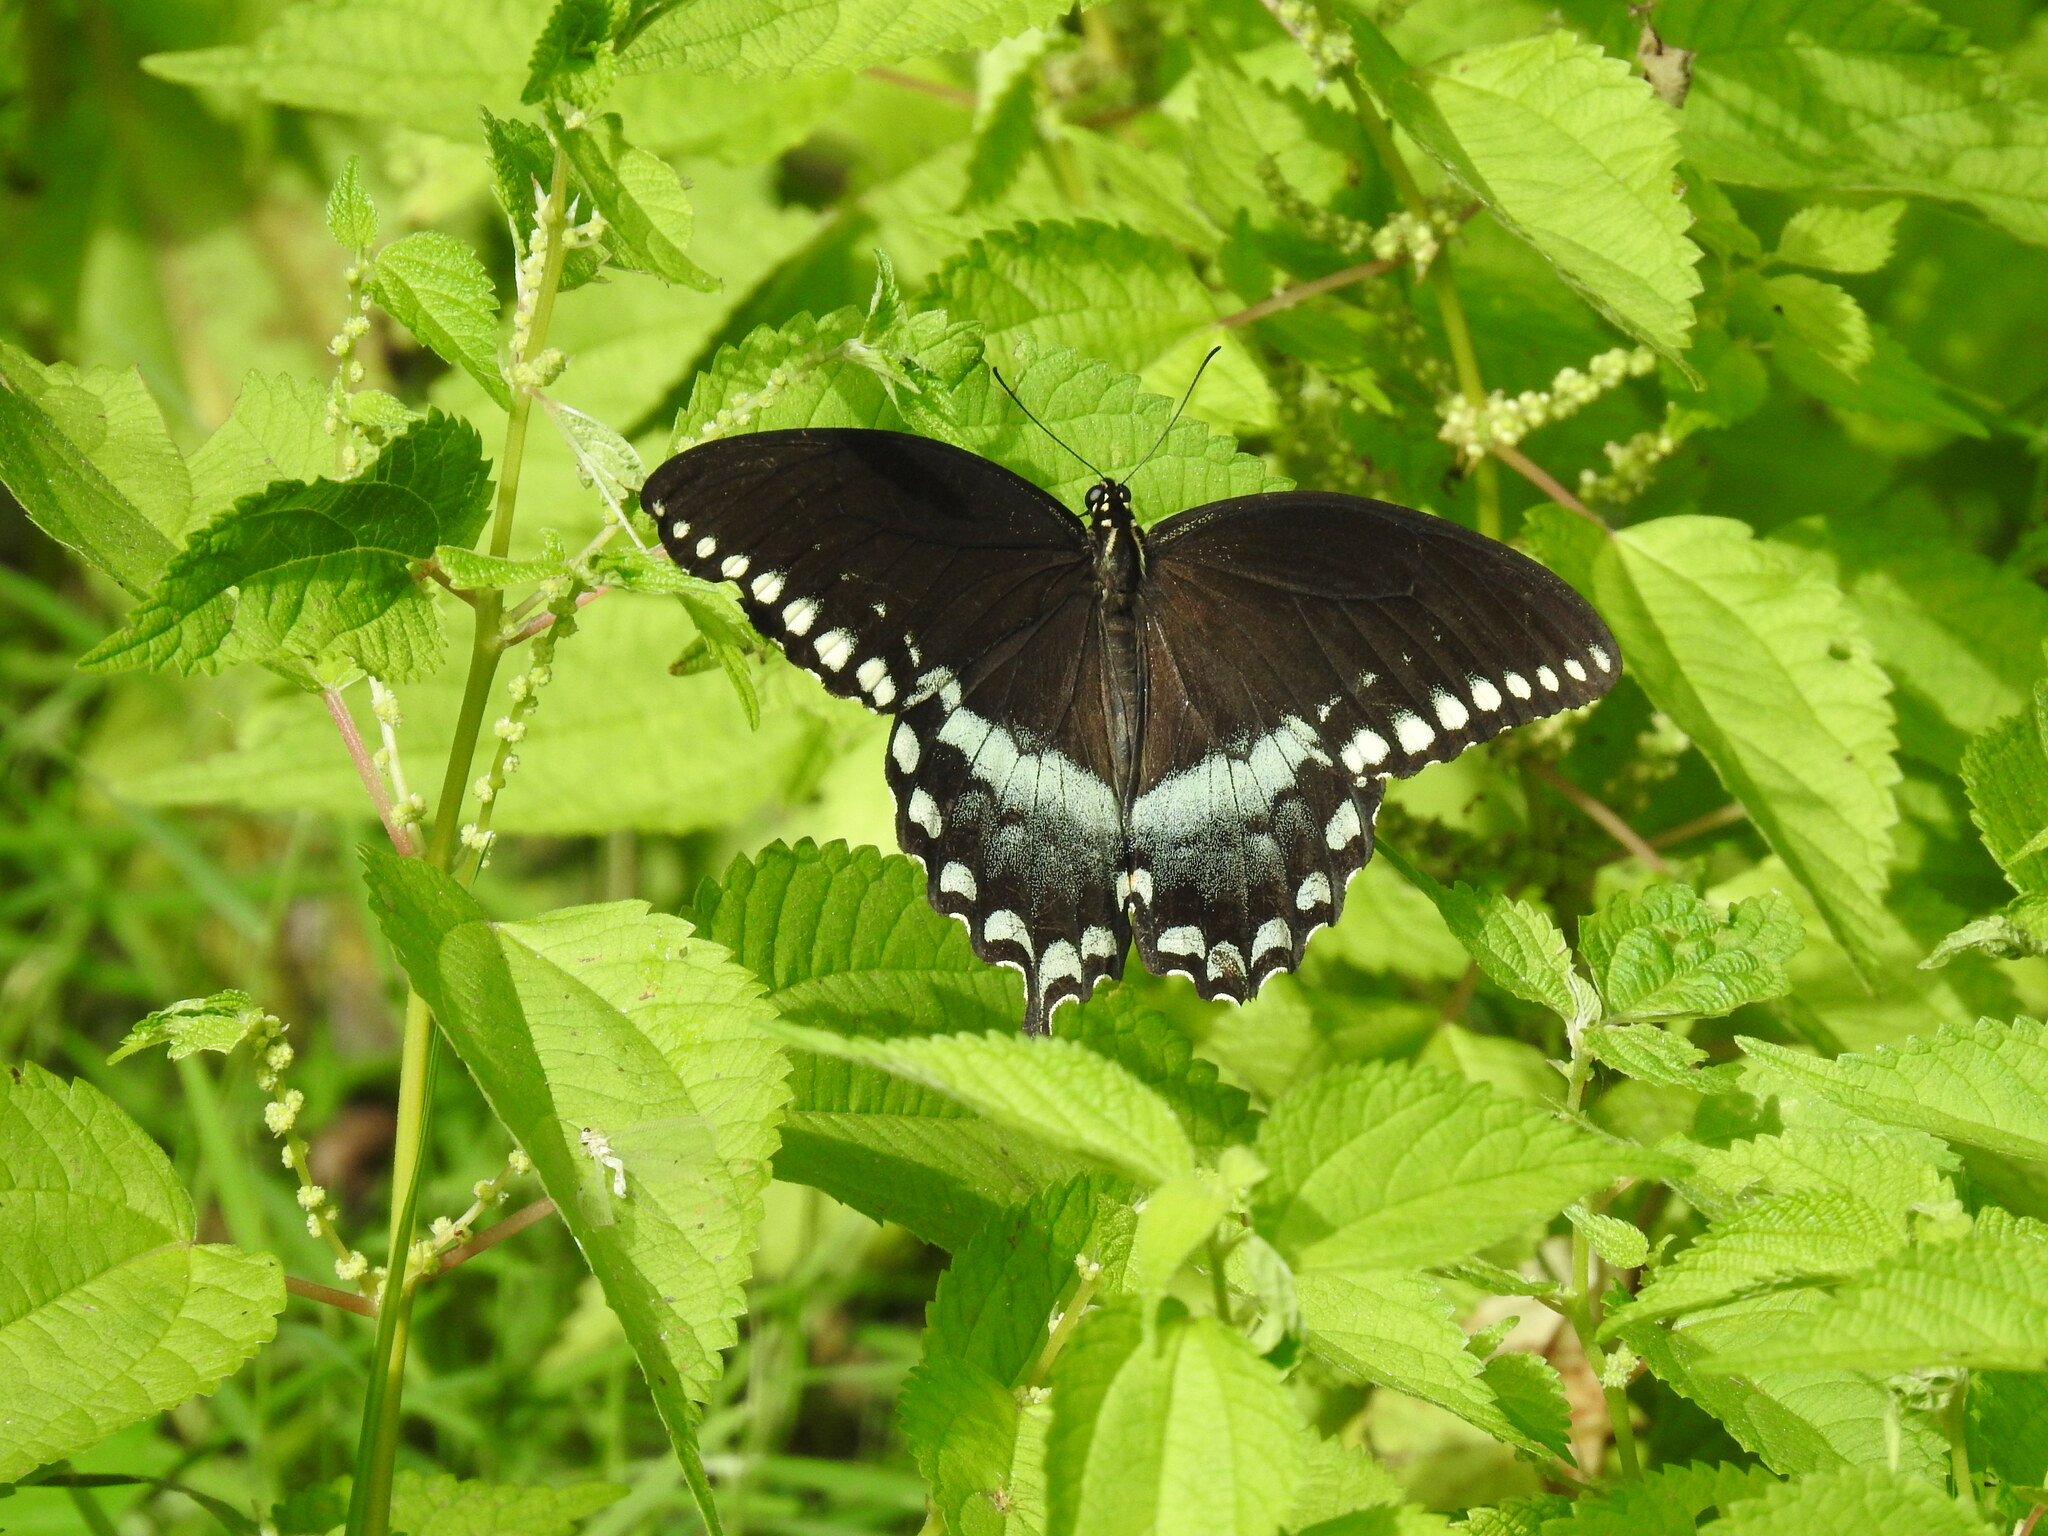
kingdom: Animalia
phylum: Arthropoda
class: Insecta
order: Lepidoptera
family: Papilionidae
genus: Papilio
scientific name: Papilio troilus
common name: Spicebush swallowtail
